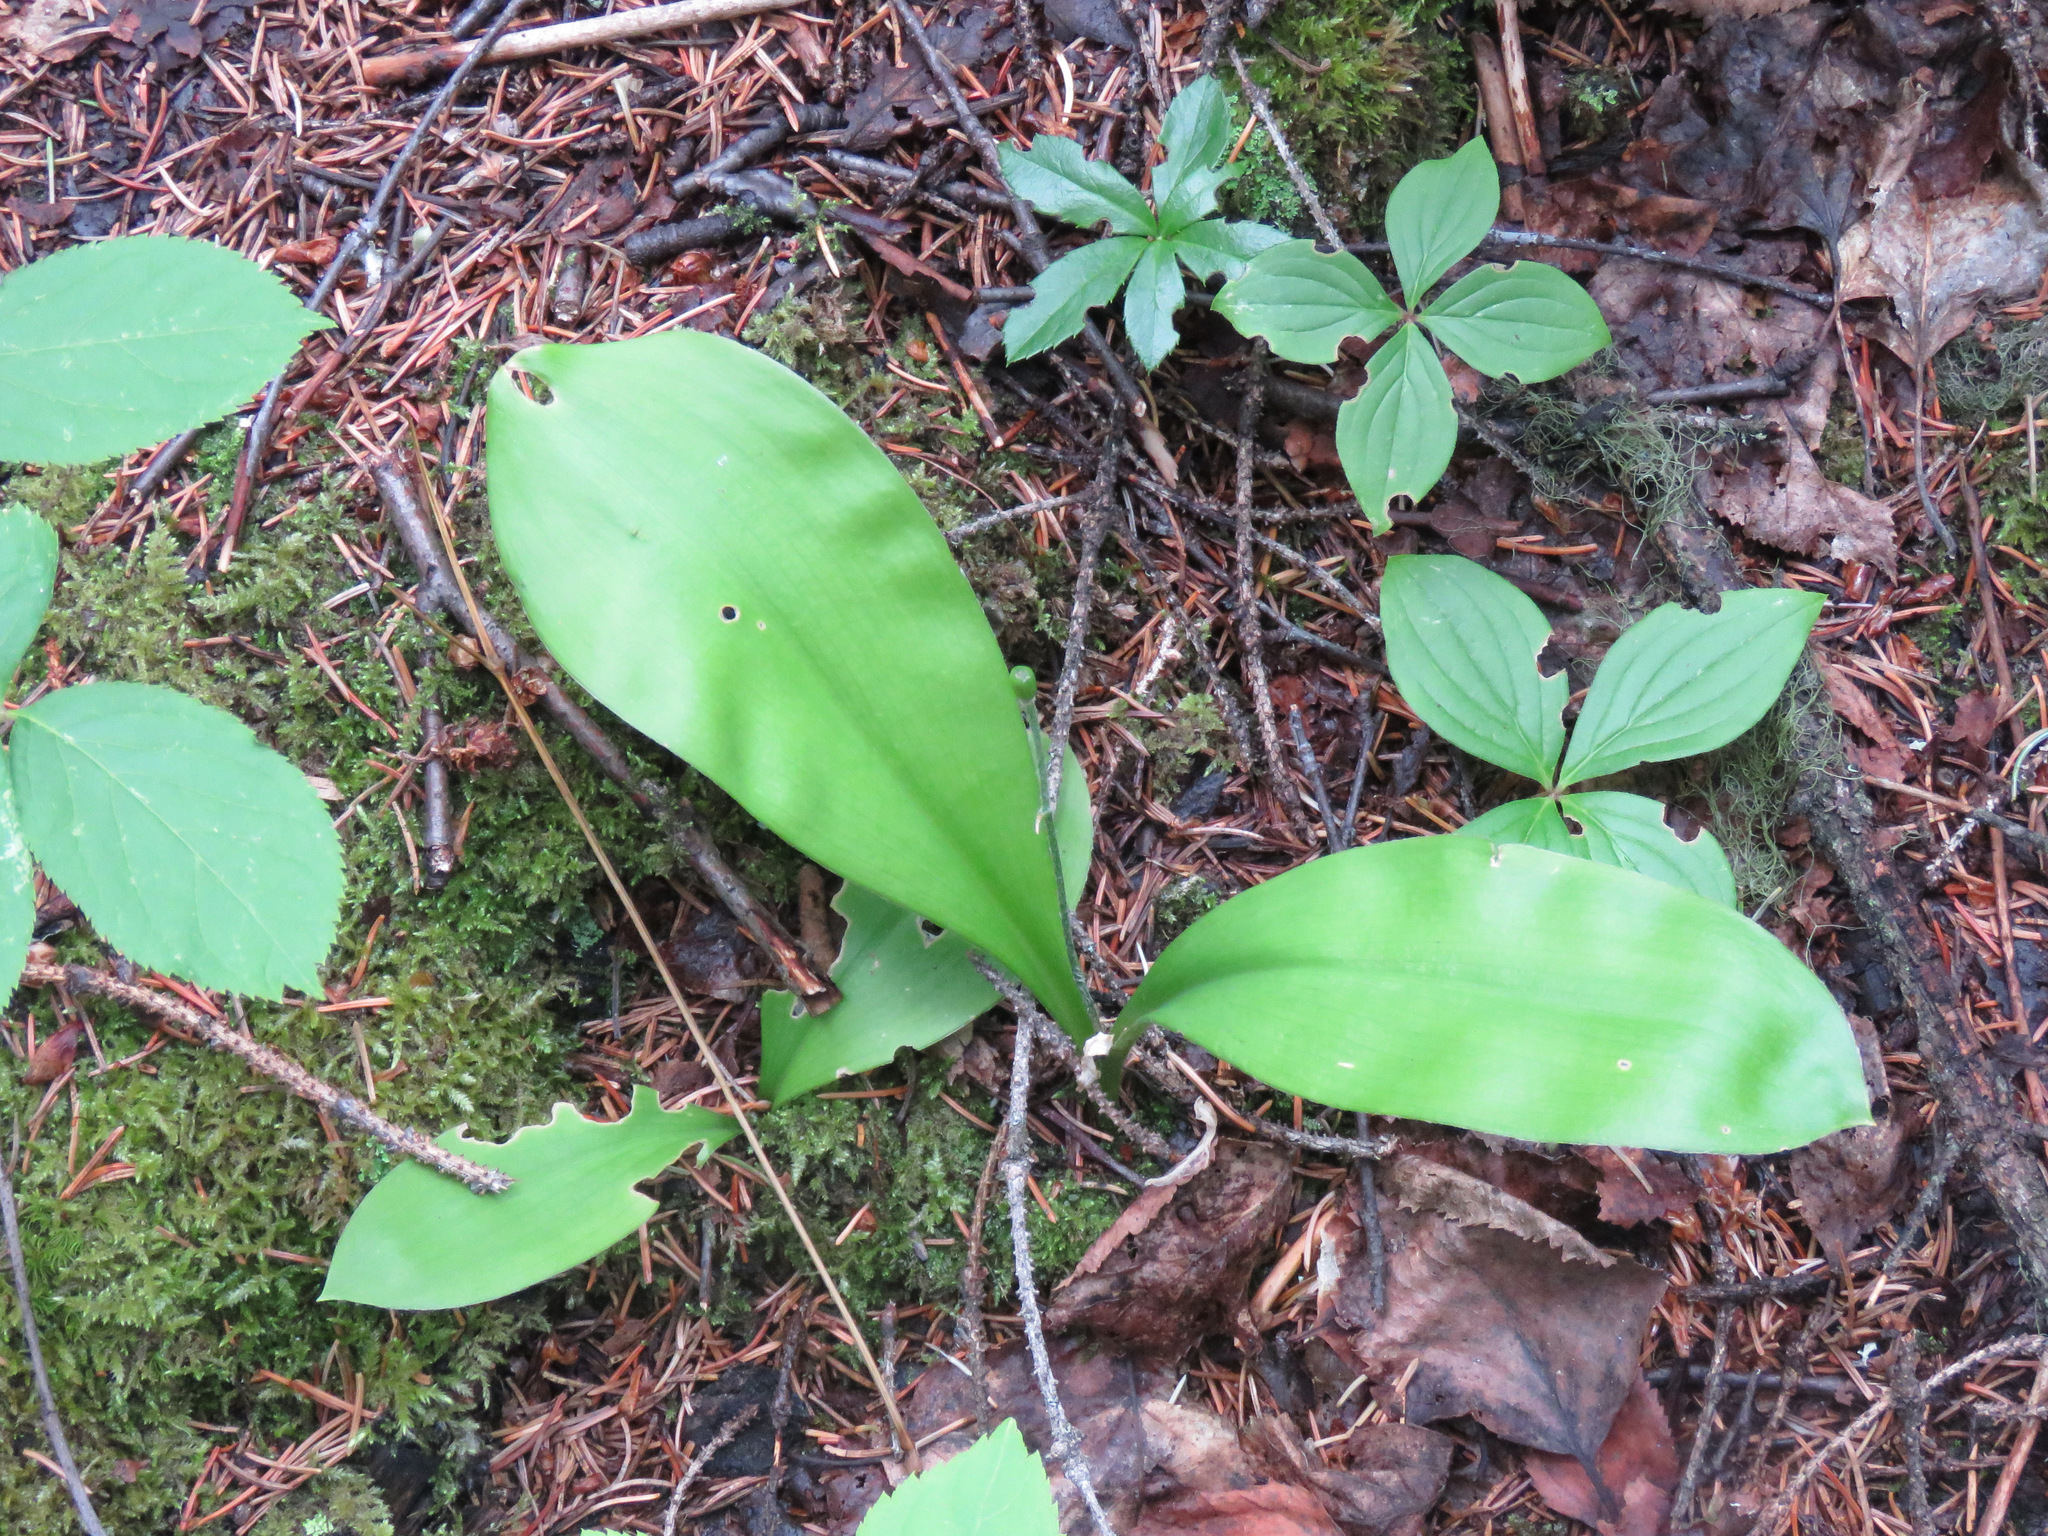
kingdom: Plantae
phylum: Tracheophyta
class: Liliopsida
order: Liliales
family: Liliaceae
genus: Clintonia
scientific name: Clintonia uniflora
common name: Queen's cup
